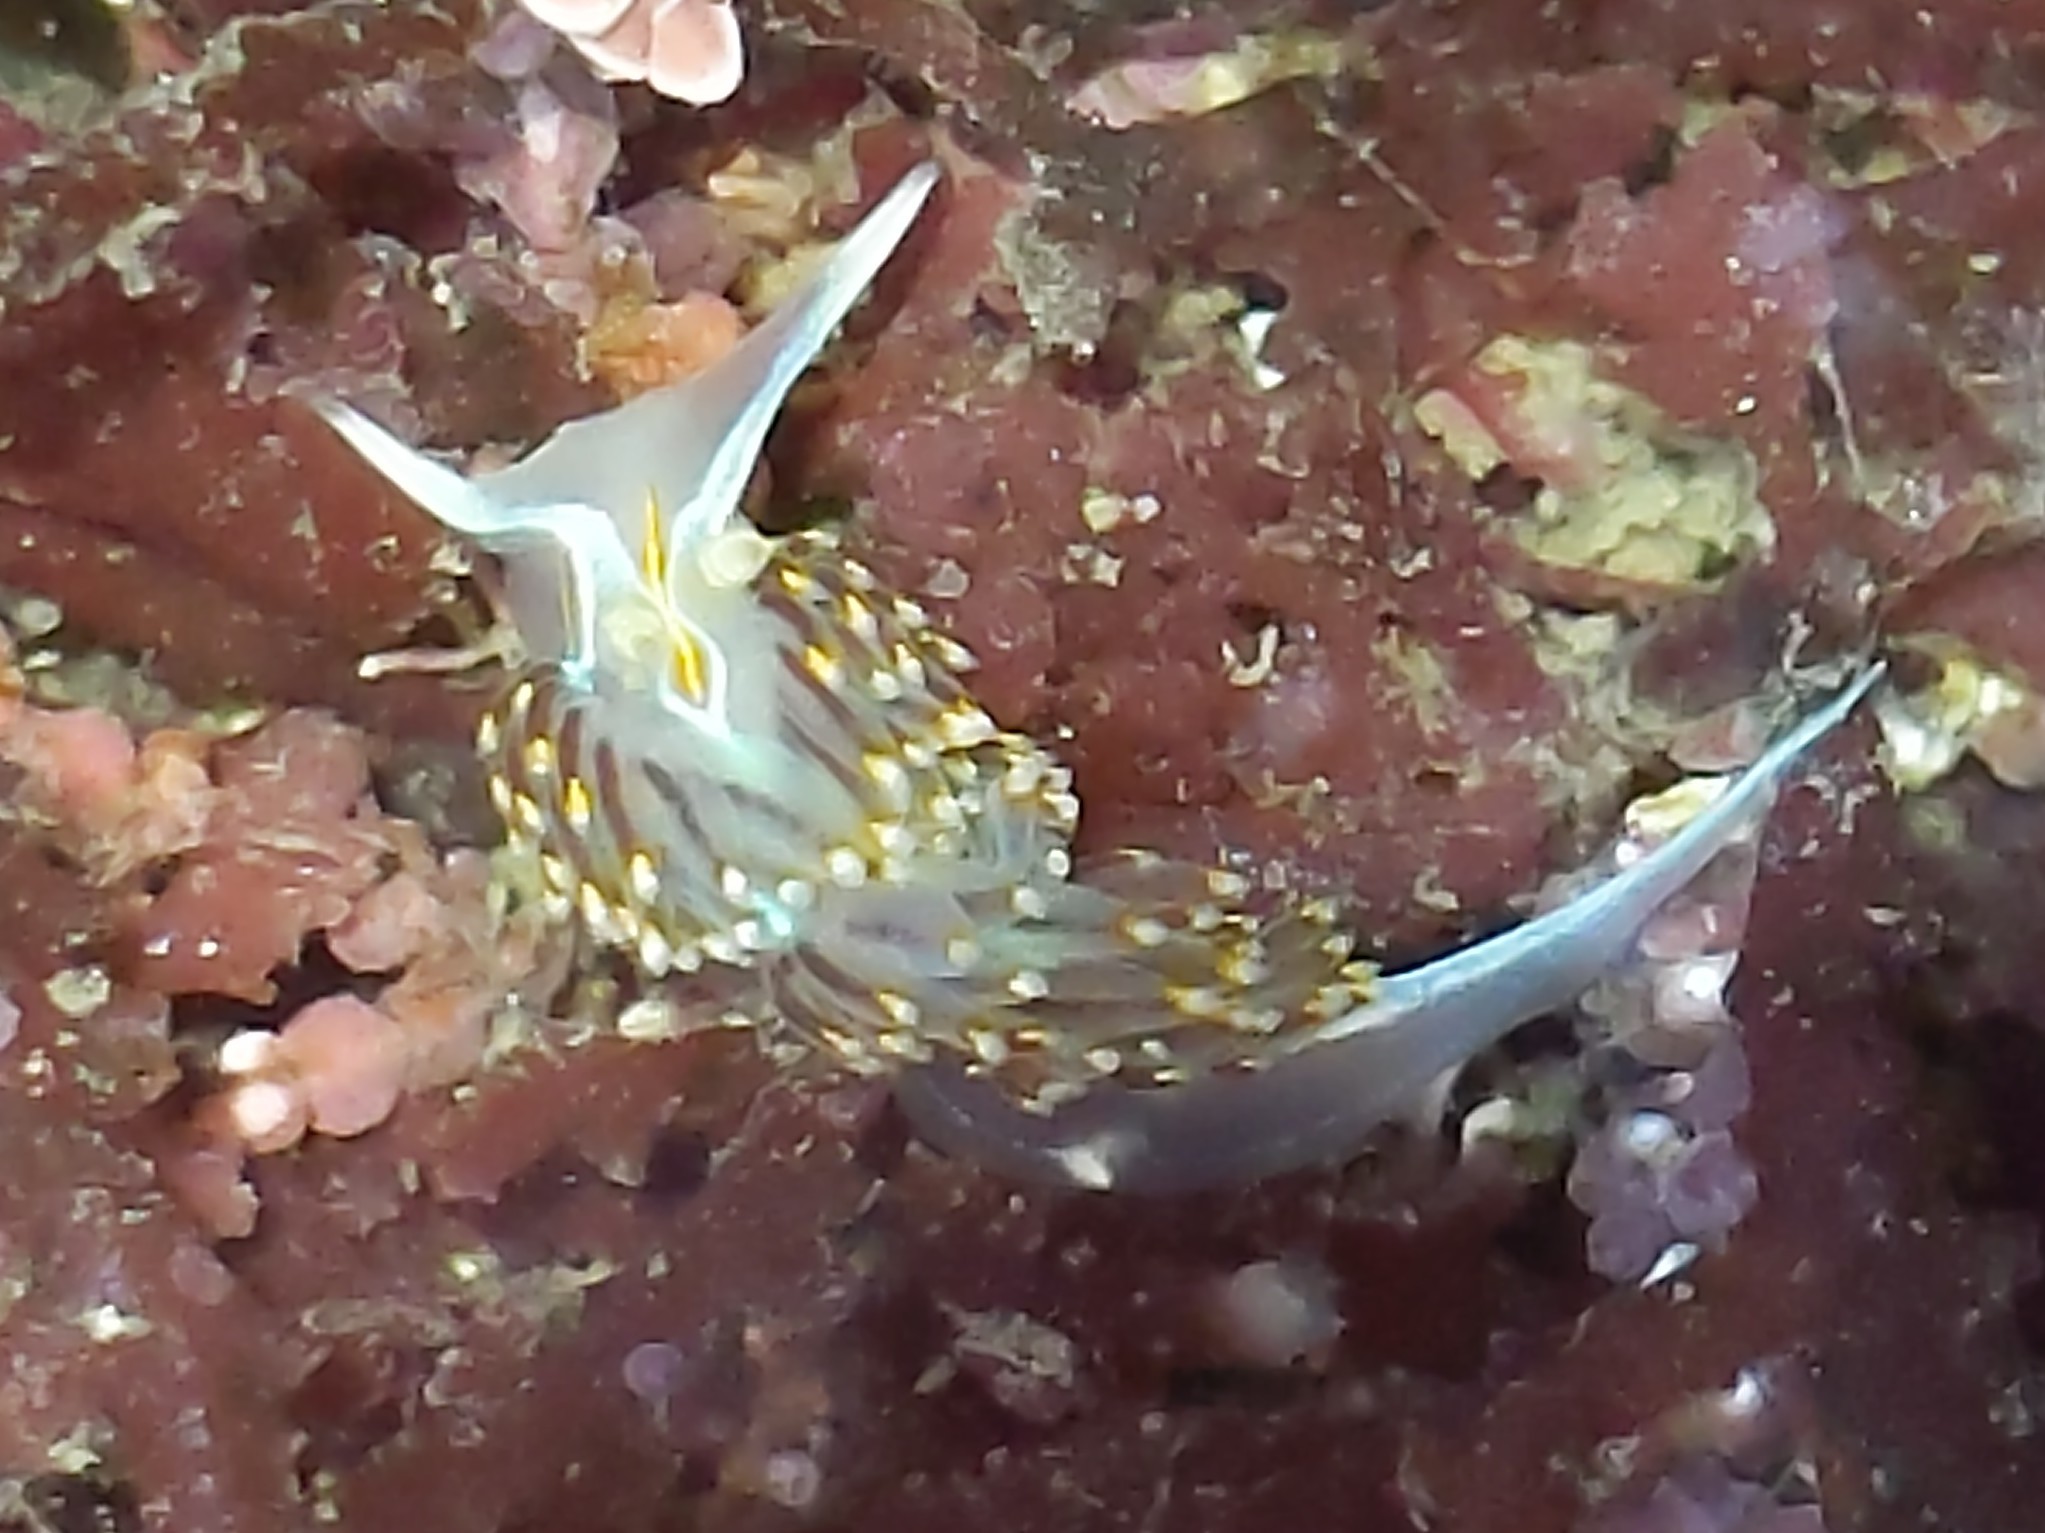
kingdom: Animalia
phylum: Mollusca
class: Gastropoda
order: Nudibranchia
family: Myrrhinidae
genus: Hermissenda
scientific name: Hermissenda opalescens
